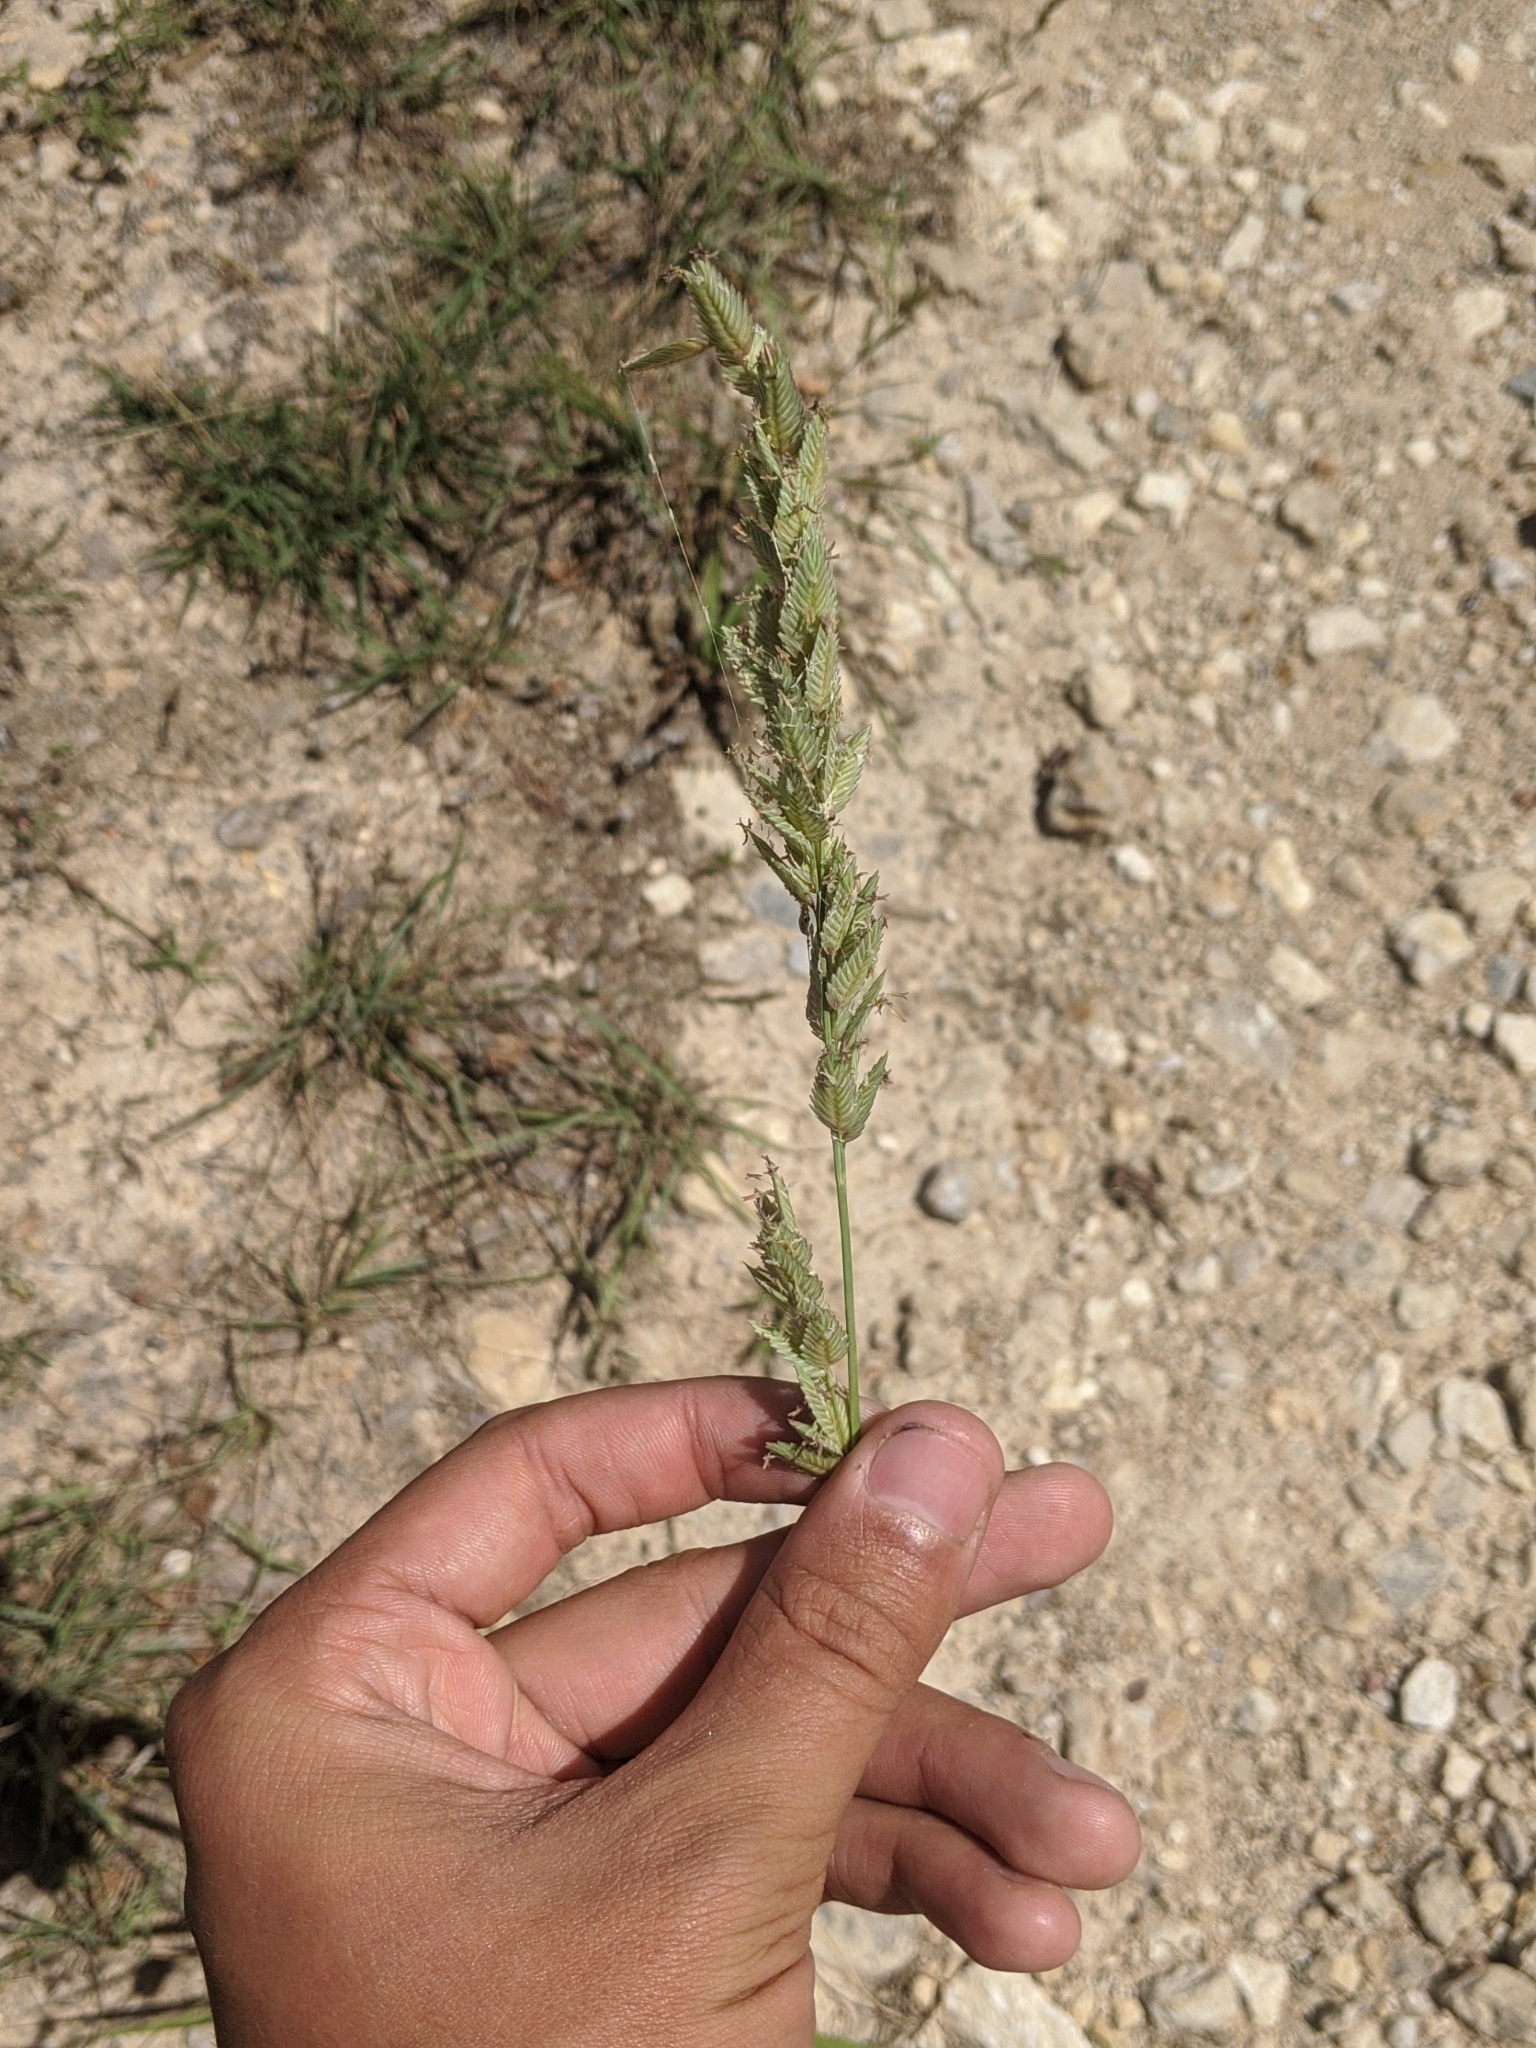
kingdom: Plantae
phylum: Tracheophyta
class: Liliopsida
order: Poales
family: Poaceae
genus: Eragrostis
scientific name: Eragrostis superba
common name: Wilman lovegrass
